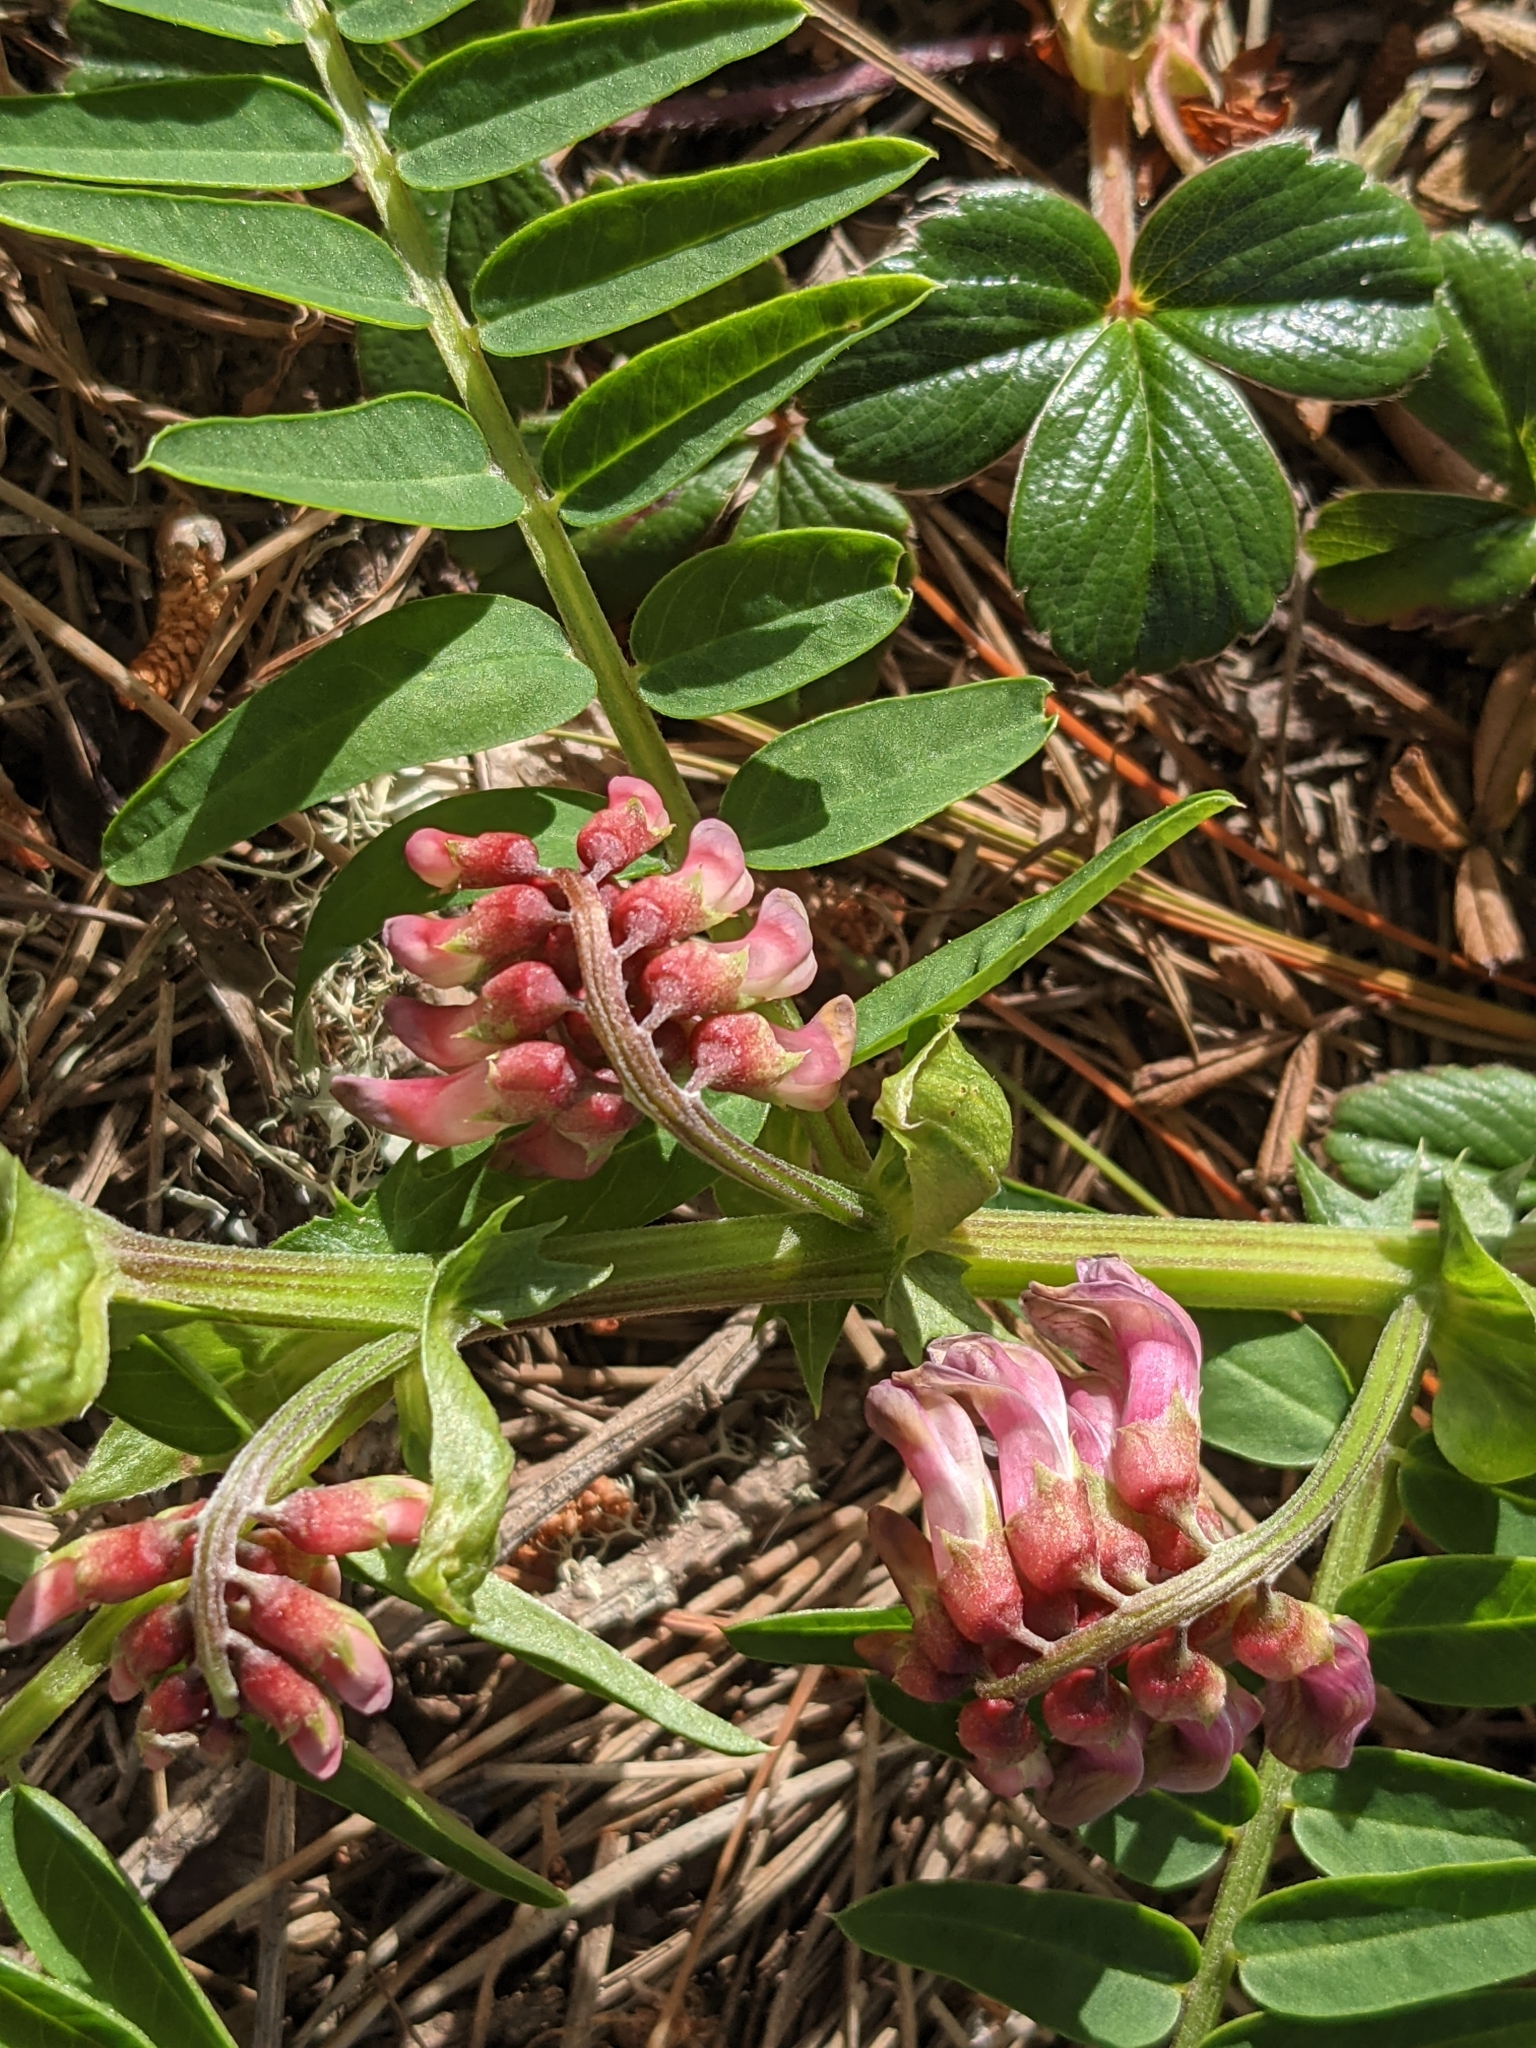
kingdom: Plantae
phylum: Tracheophyta
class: Magnoliopsida
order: Fabales
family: Fabaceae
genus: Vicia
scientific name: Vicia
